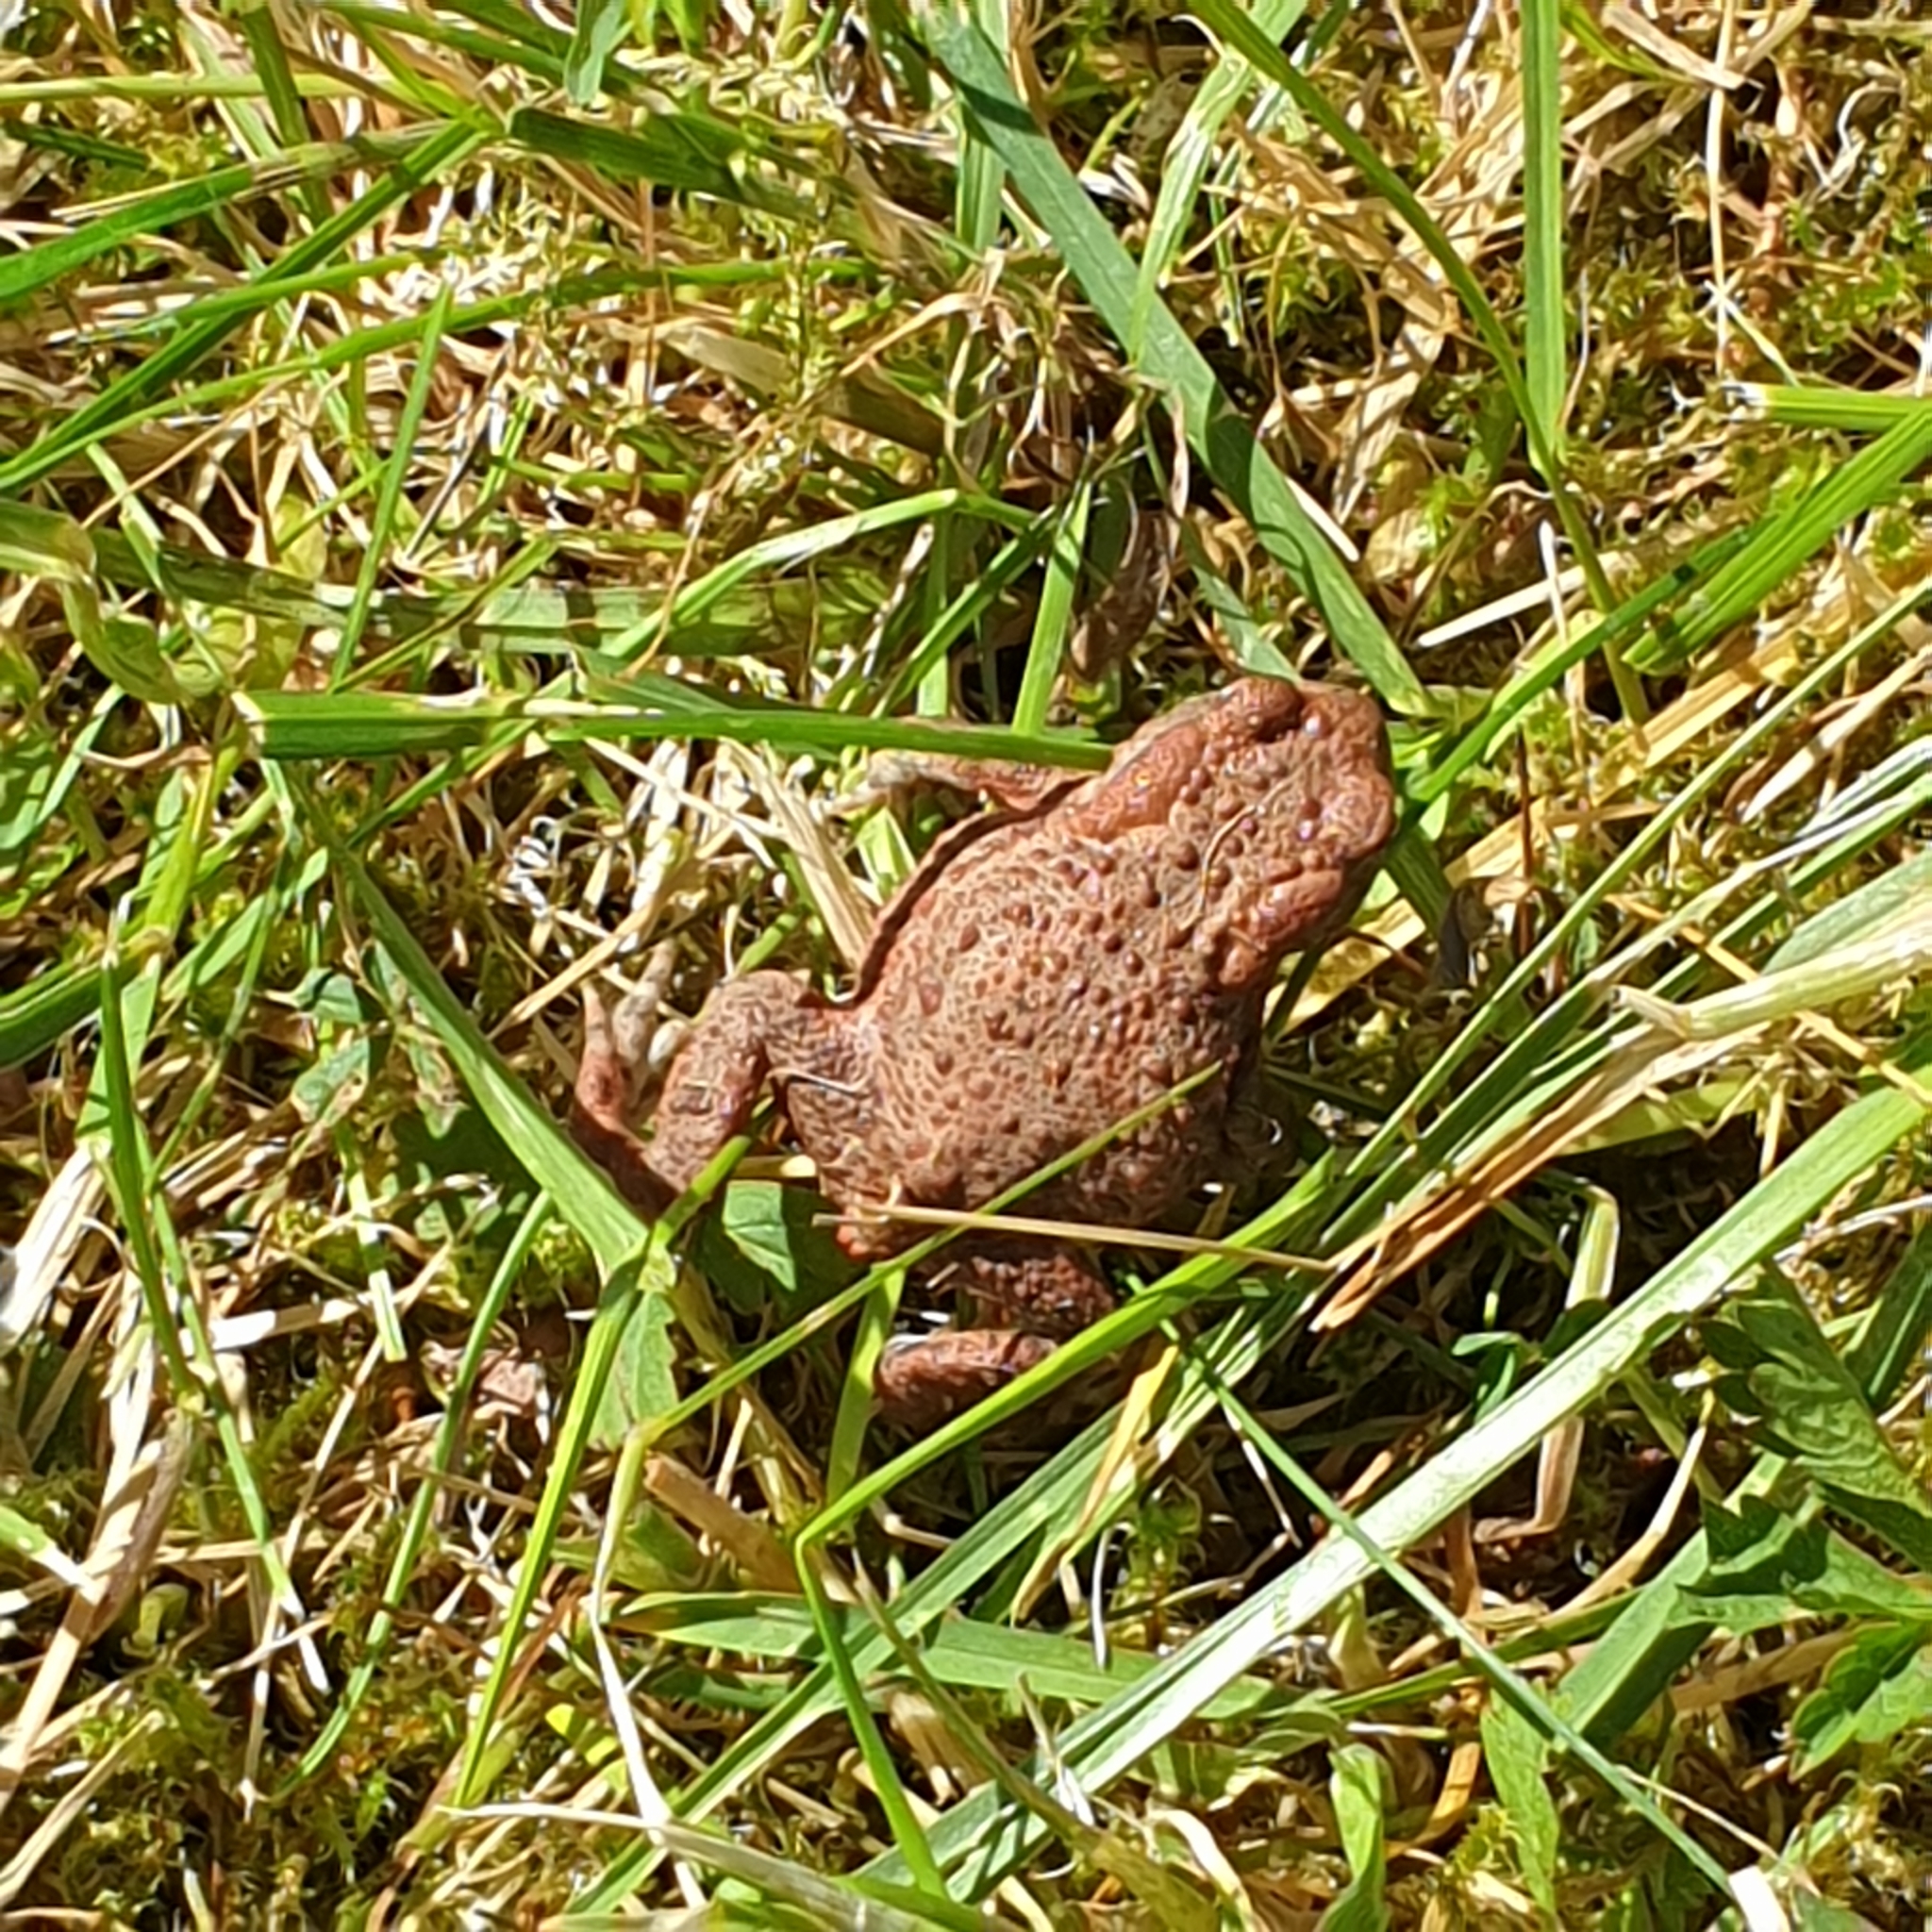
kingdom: Animalia
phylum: Chordata
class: Amphibia
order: Anura
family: Bufonidae
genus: Bufo
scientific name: Bufo bufo
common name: Common toad
